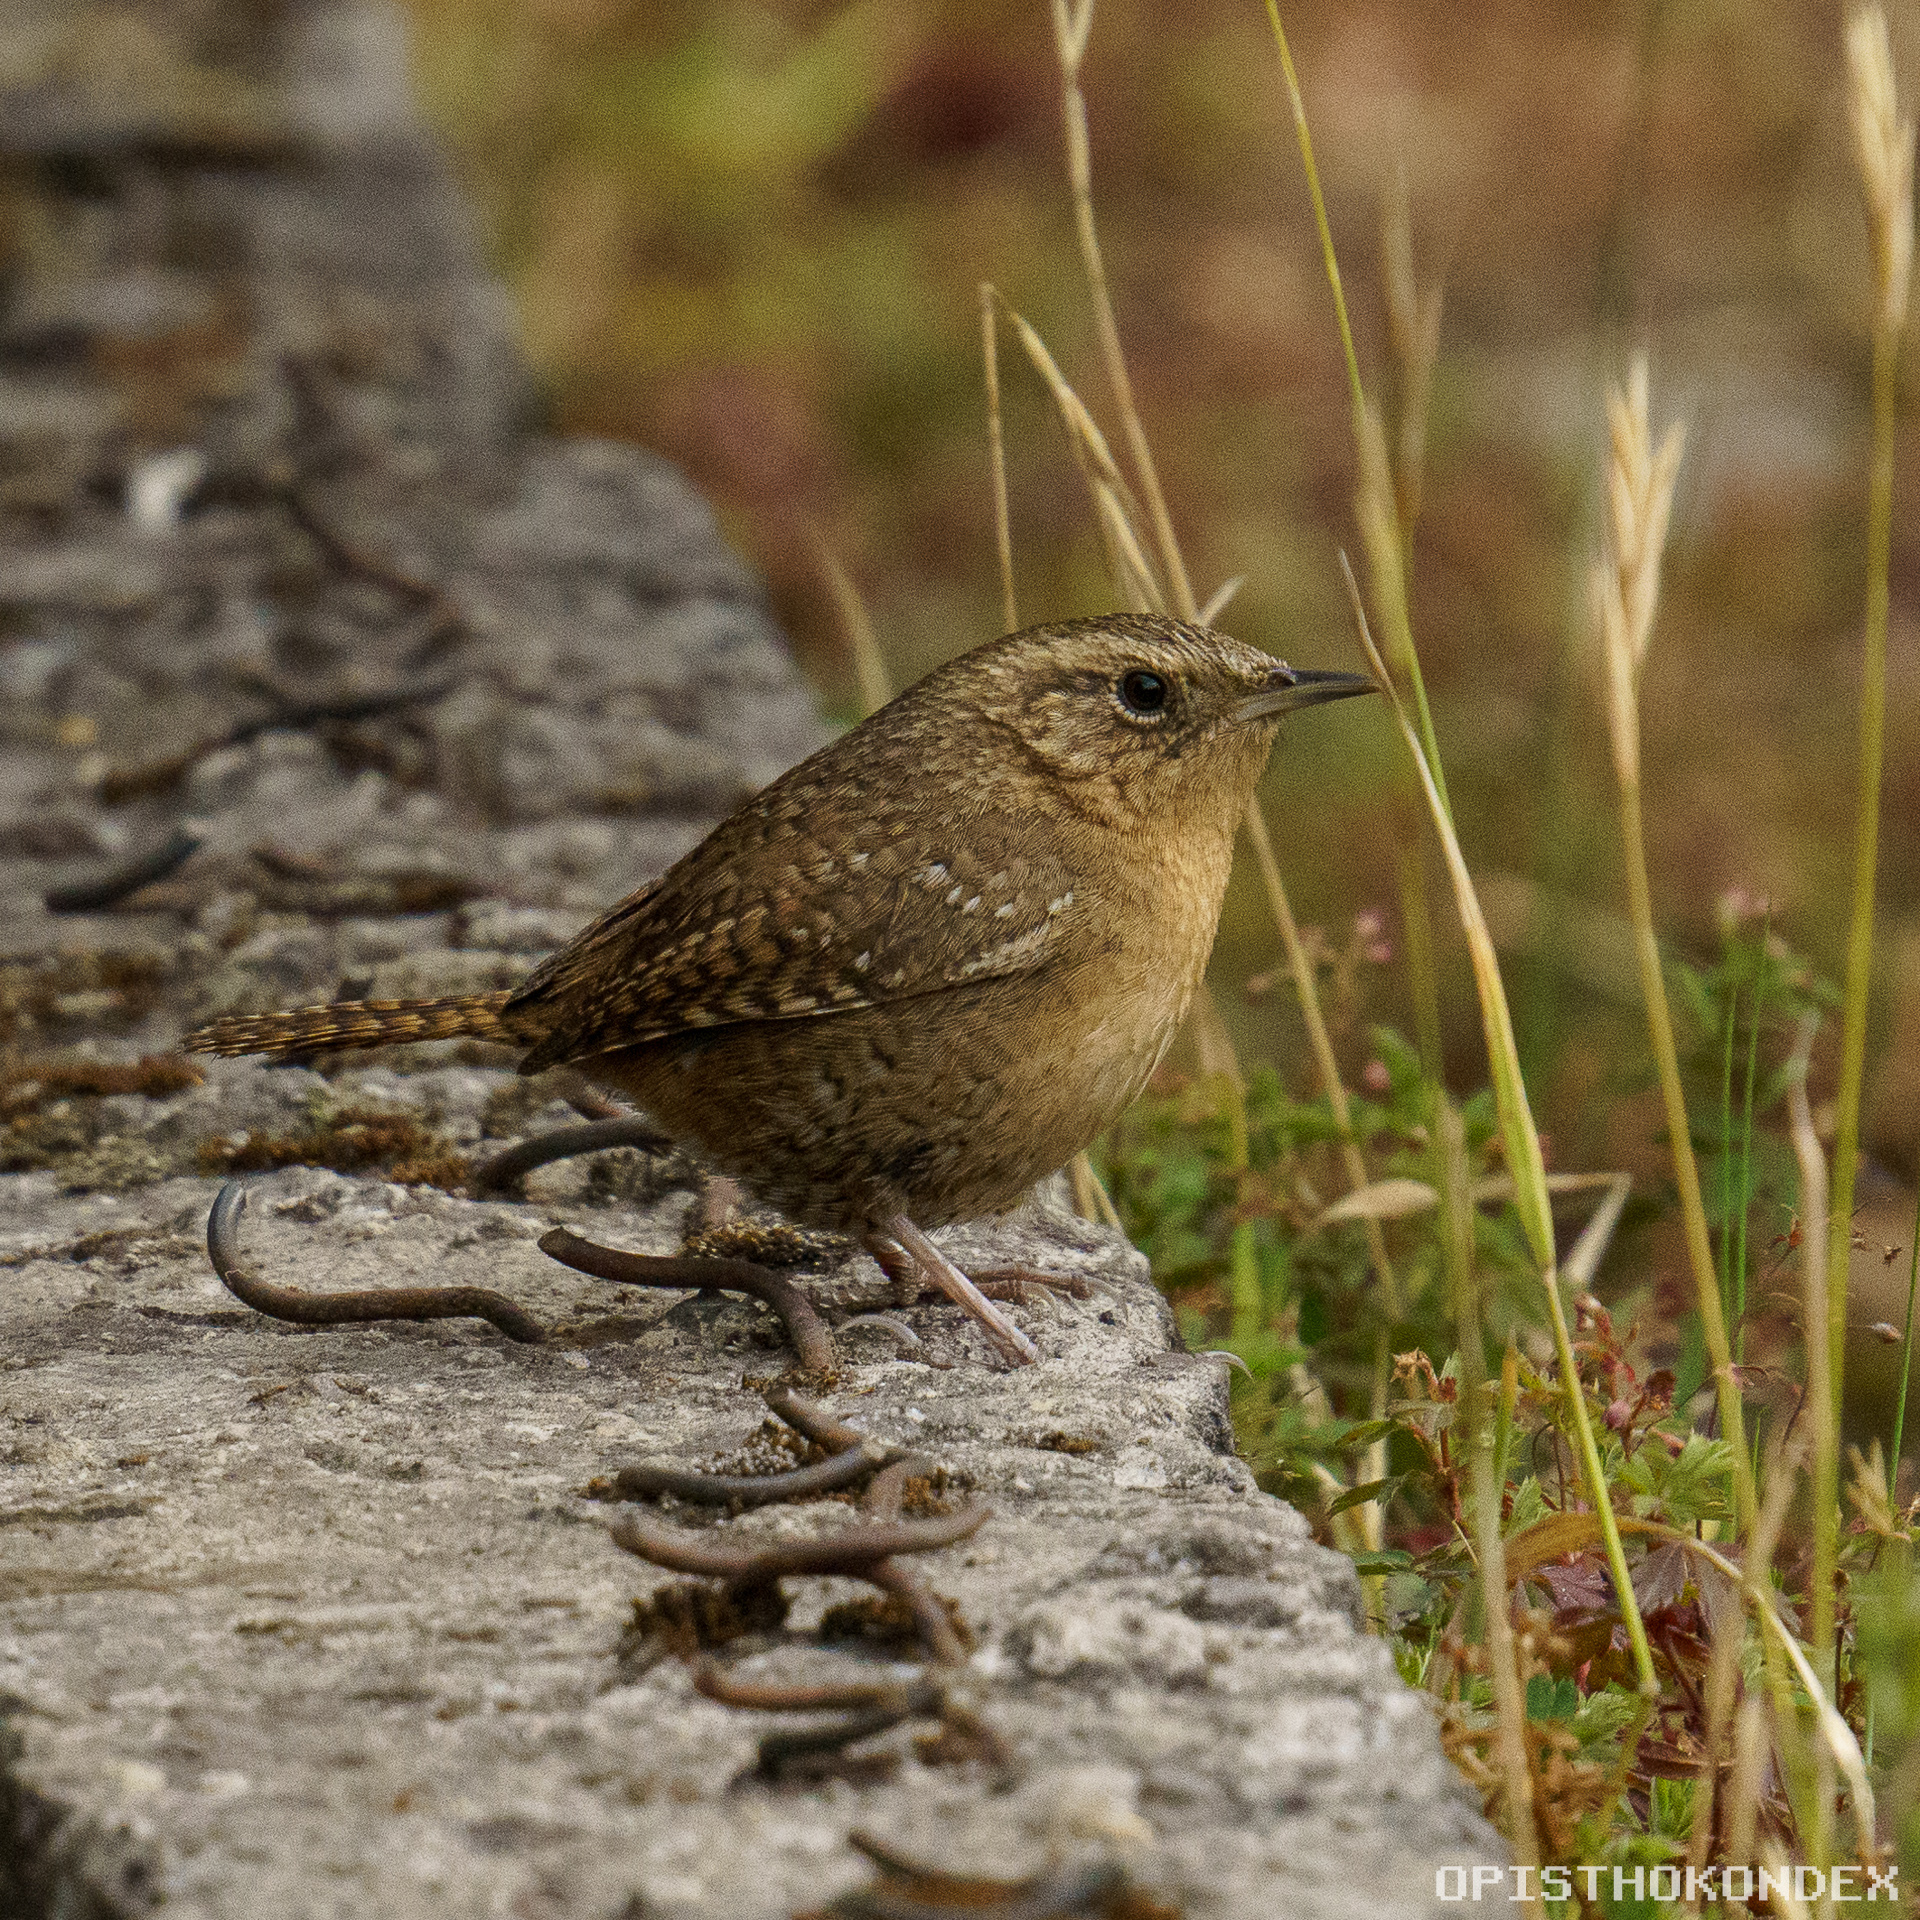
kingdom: Animalia
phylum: Chordata
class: Aves
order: Passeriformes
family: Troglodytidae
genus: Troglodytes
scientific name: Troglodytes aedon
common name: House wren
